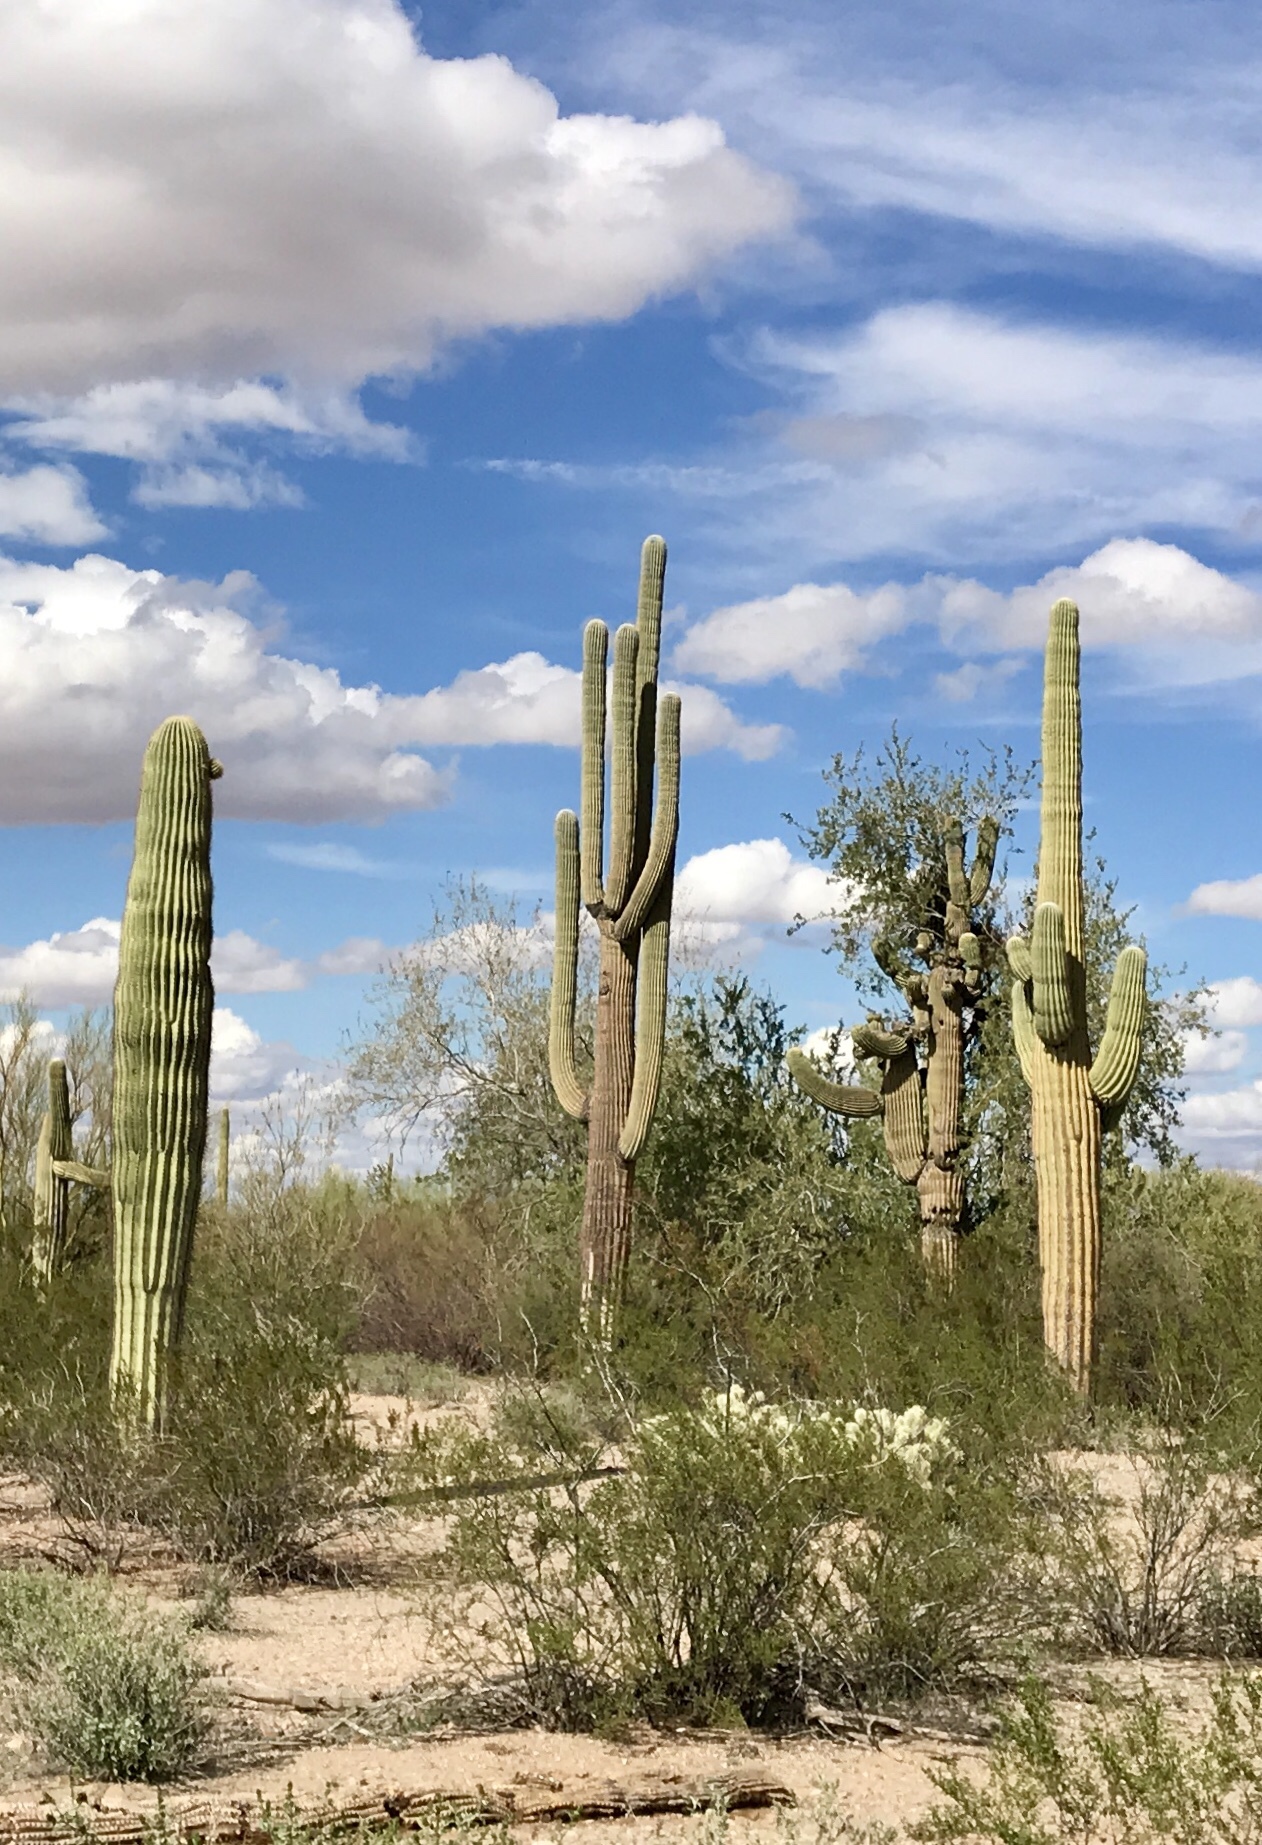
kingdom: Plantae
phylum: Tracheophyta
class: Magnoliopsida
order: Caryophyllales
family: Cactaceae
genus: Carnegiea
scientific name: Carnegiea gigantea
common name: Saguaro
